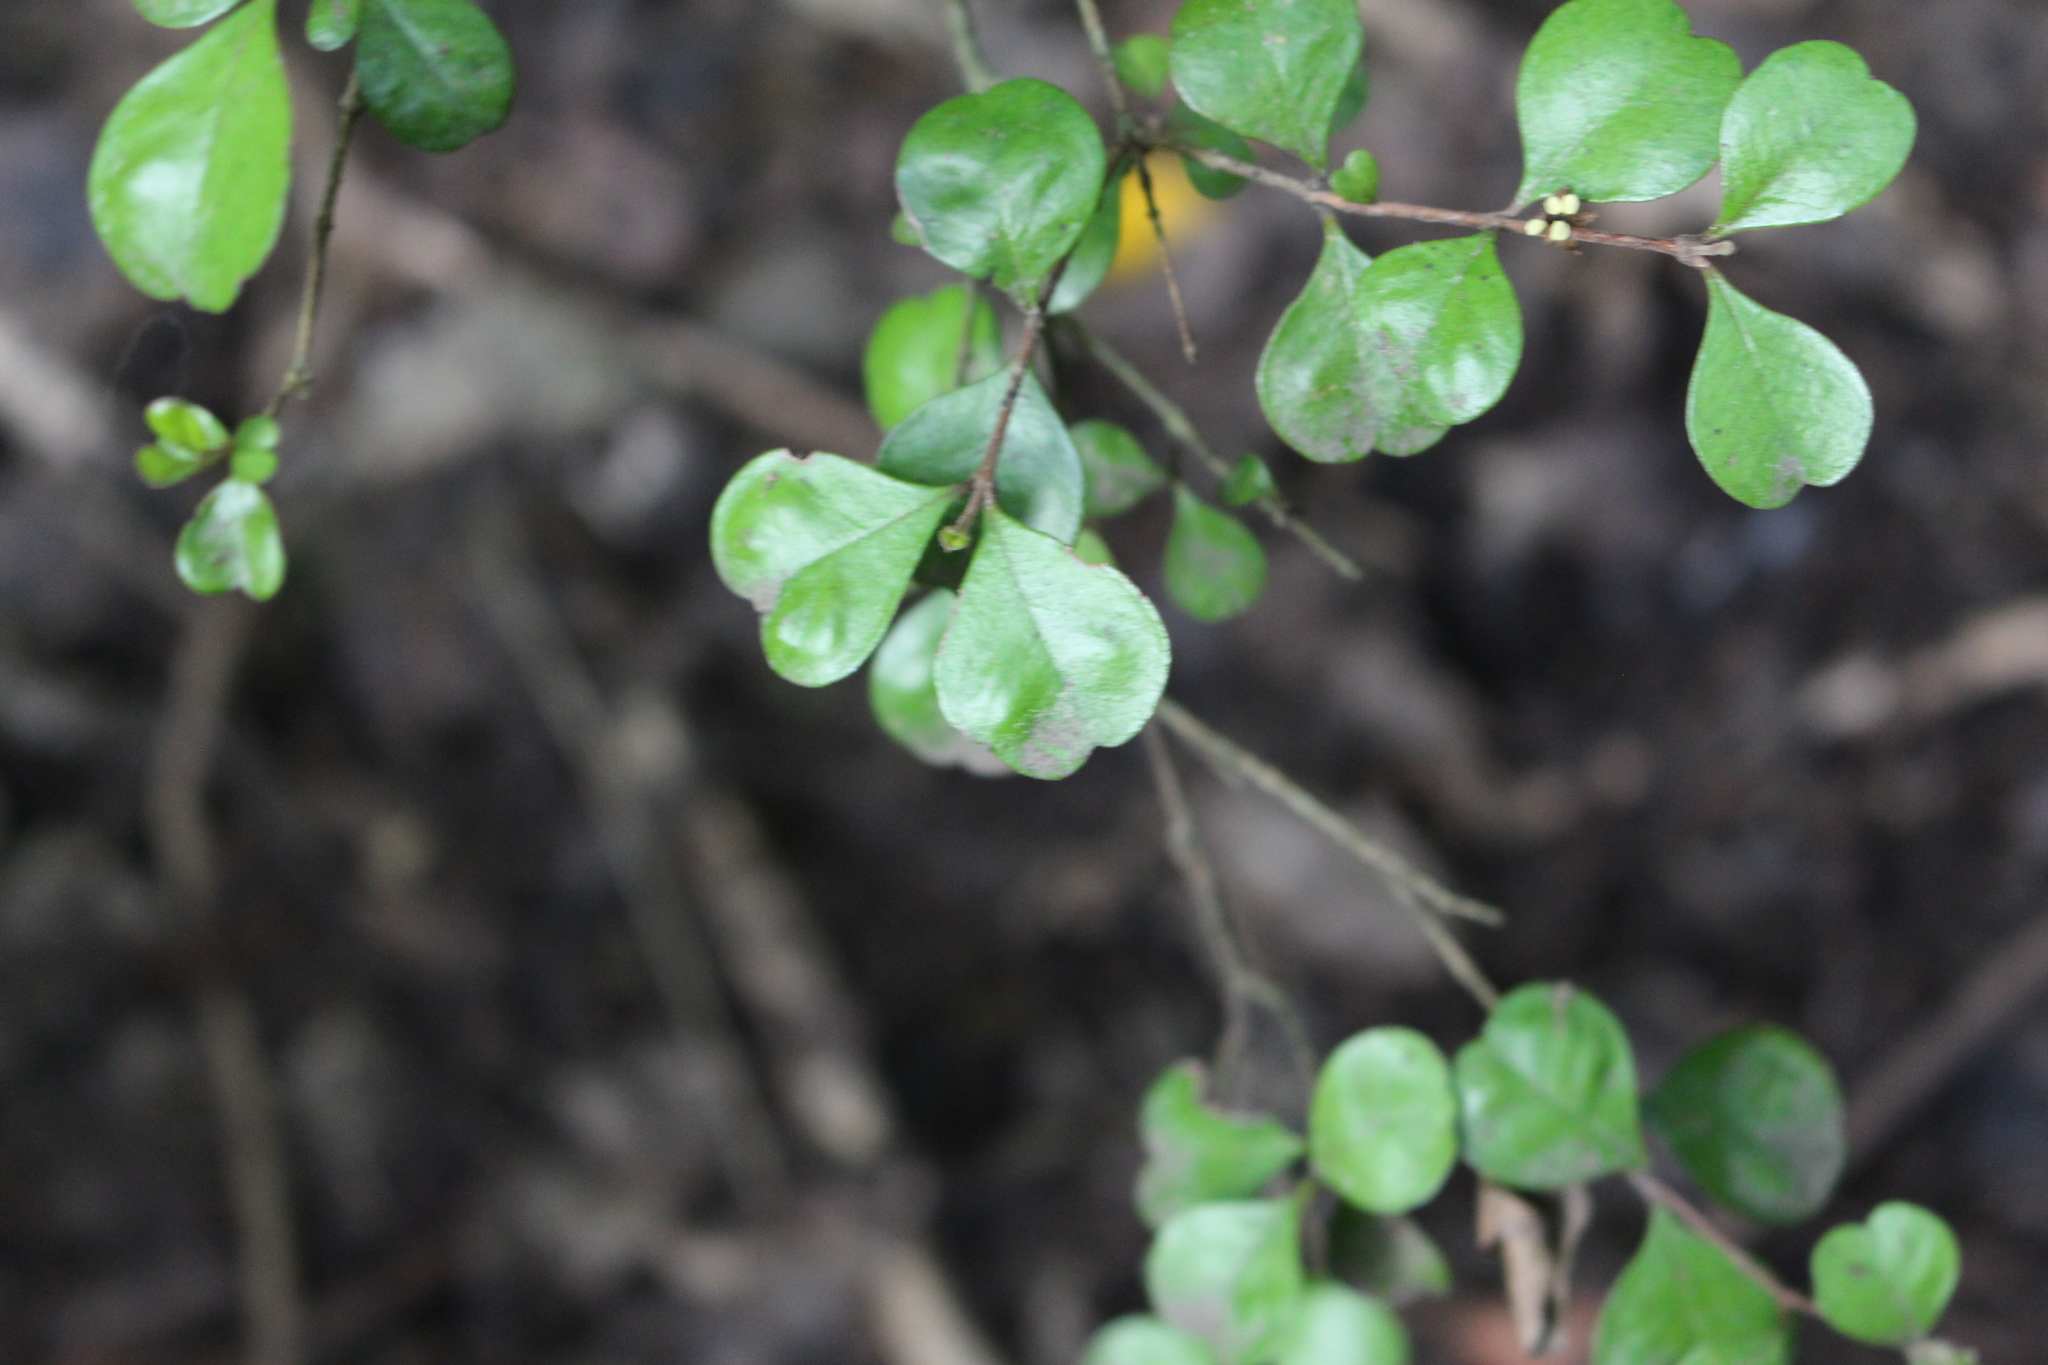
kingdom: Plantae
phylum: Tracheophyta
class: Magnoliopsida
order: Myrtales
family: Myrtaceae
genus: Lophomyrtus
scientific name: Lophomyrtus obcordata
